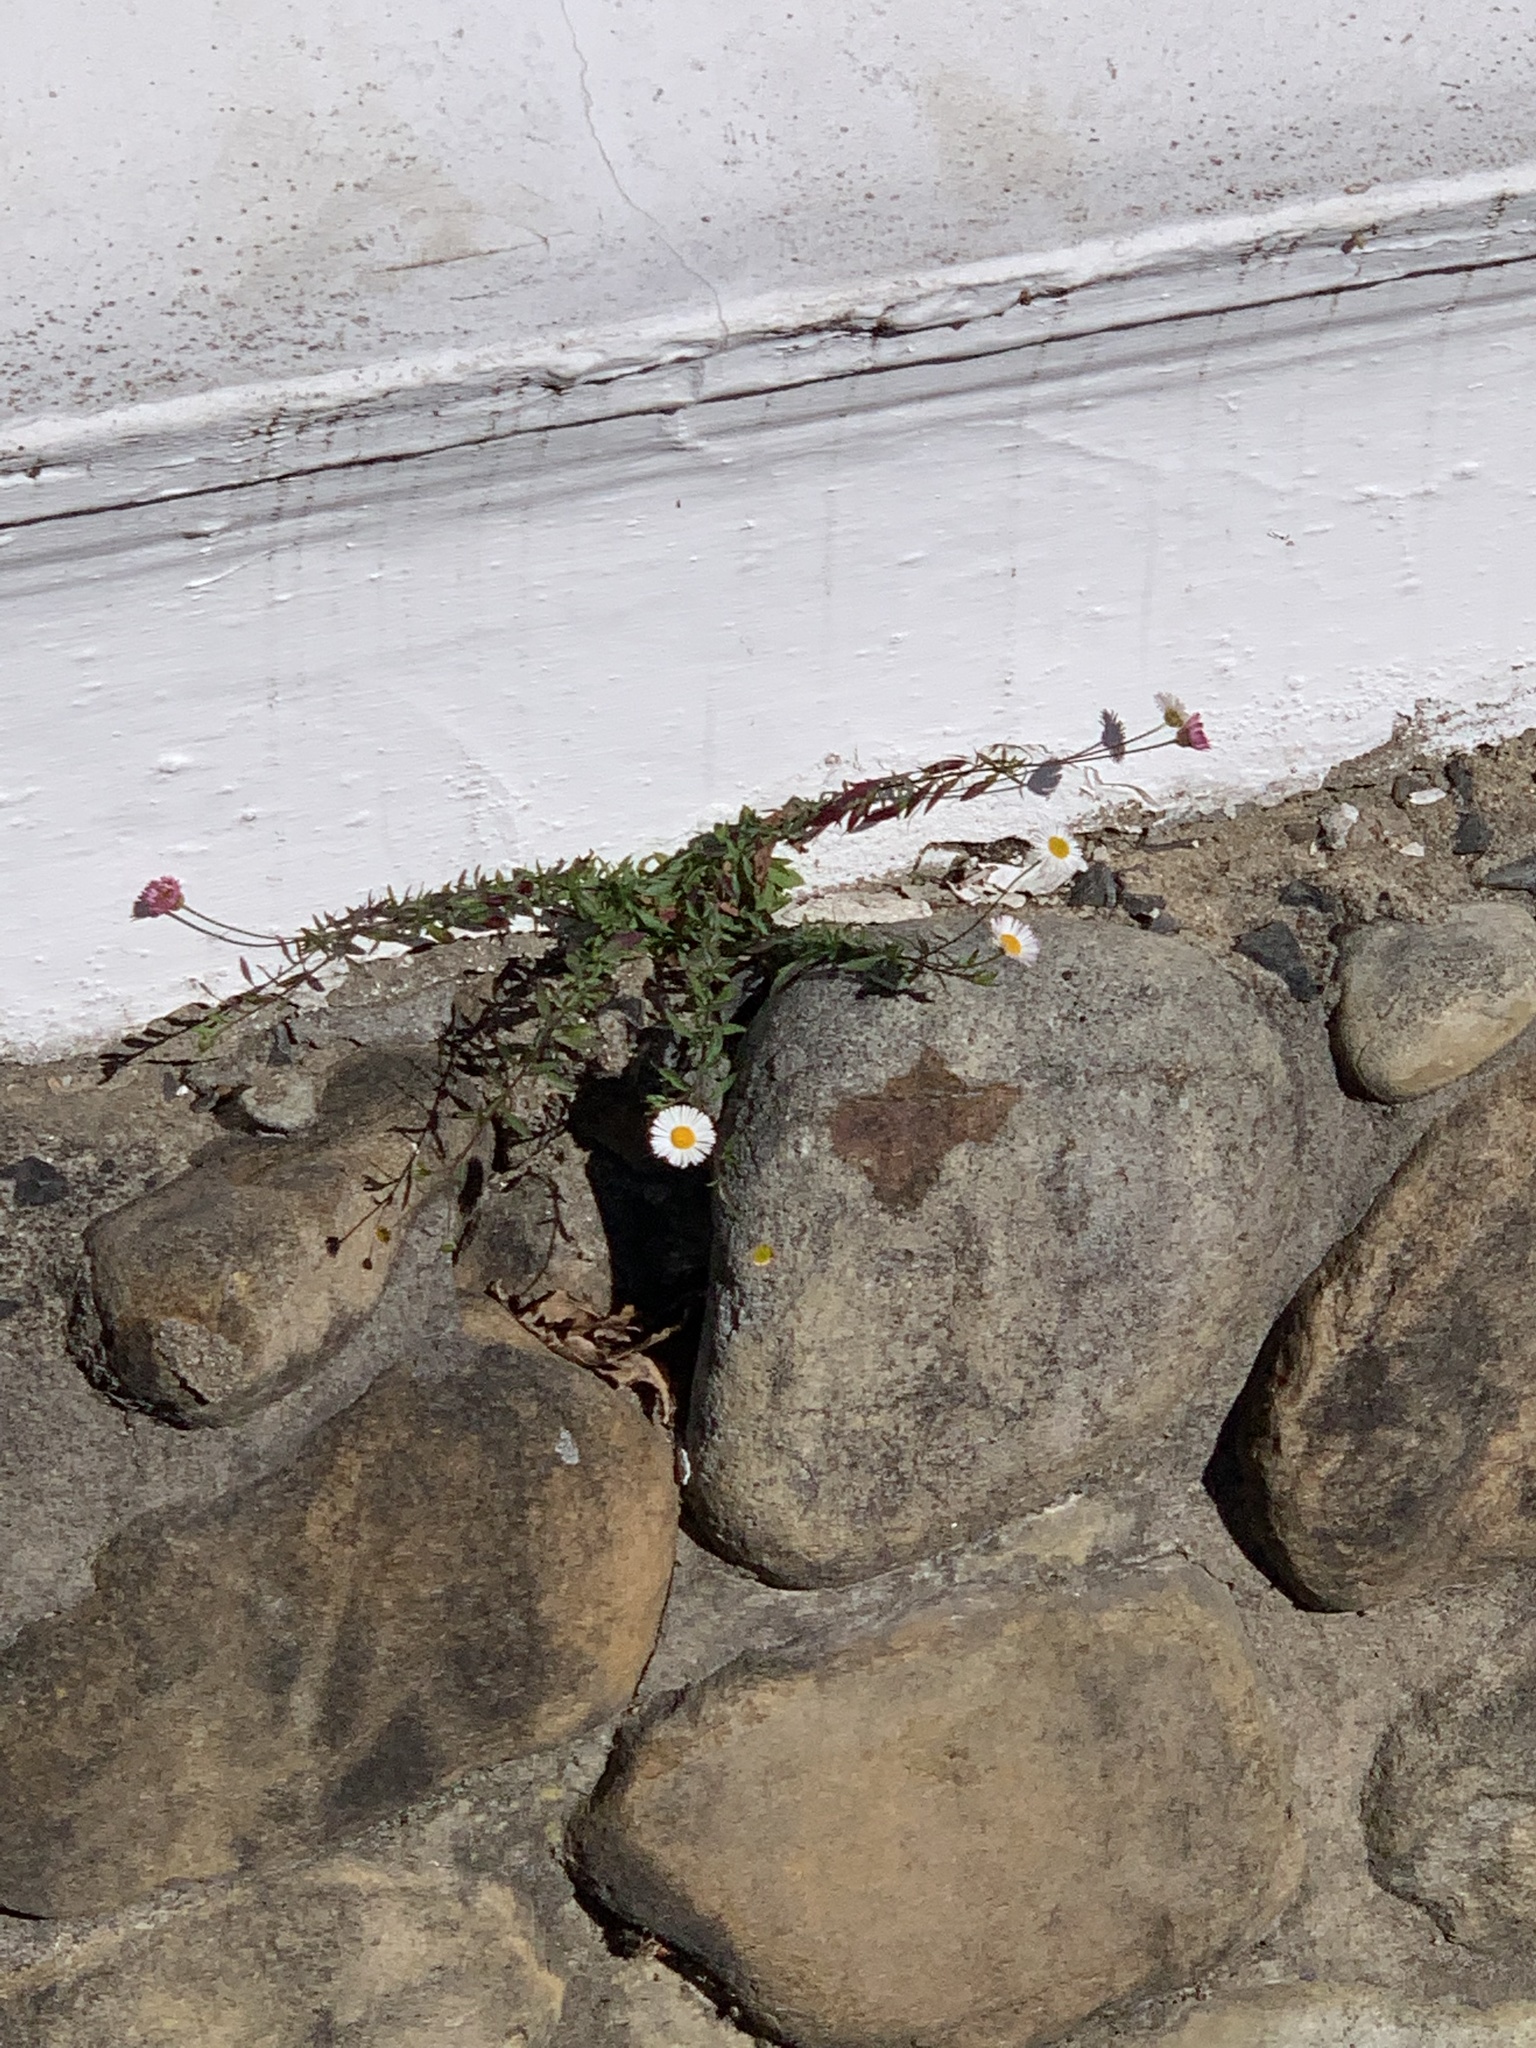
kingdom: Plantae
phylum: Tracheophyta
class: Magnoliopsida
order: Asterales
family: Asteraceae
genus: Erigeron
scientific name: Erigeron karvinskianus
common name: Mexican fleabane
